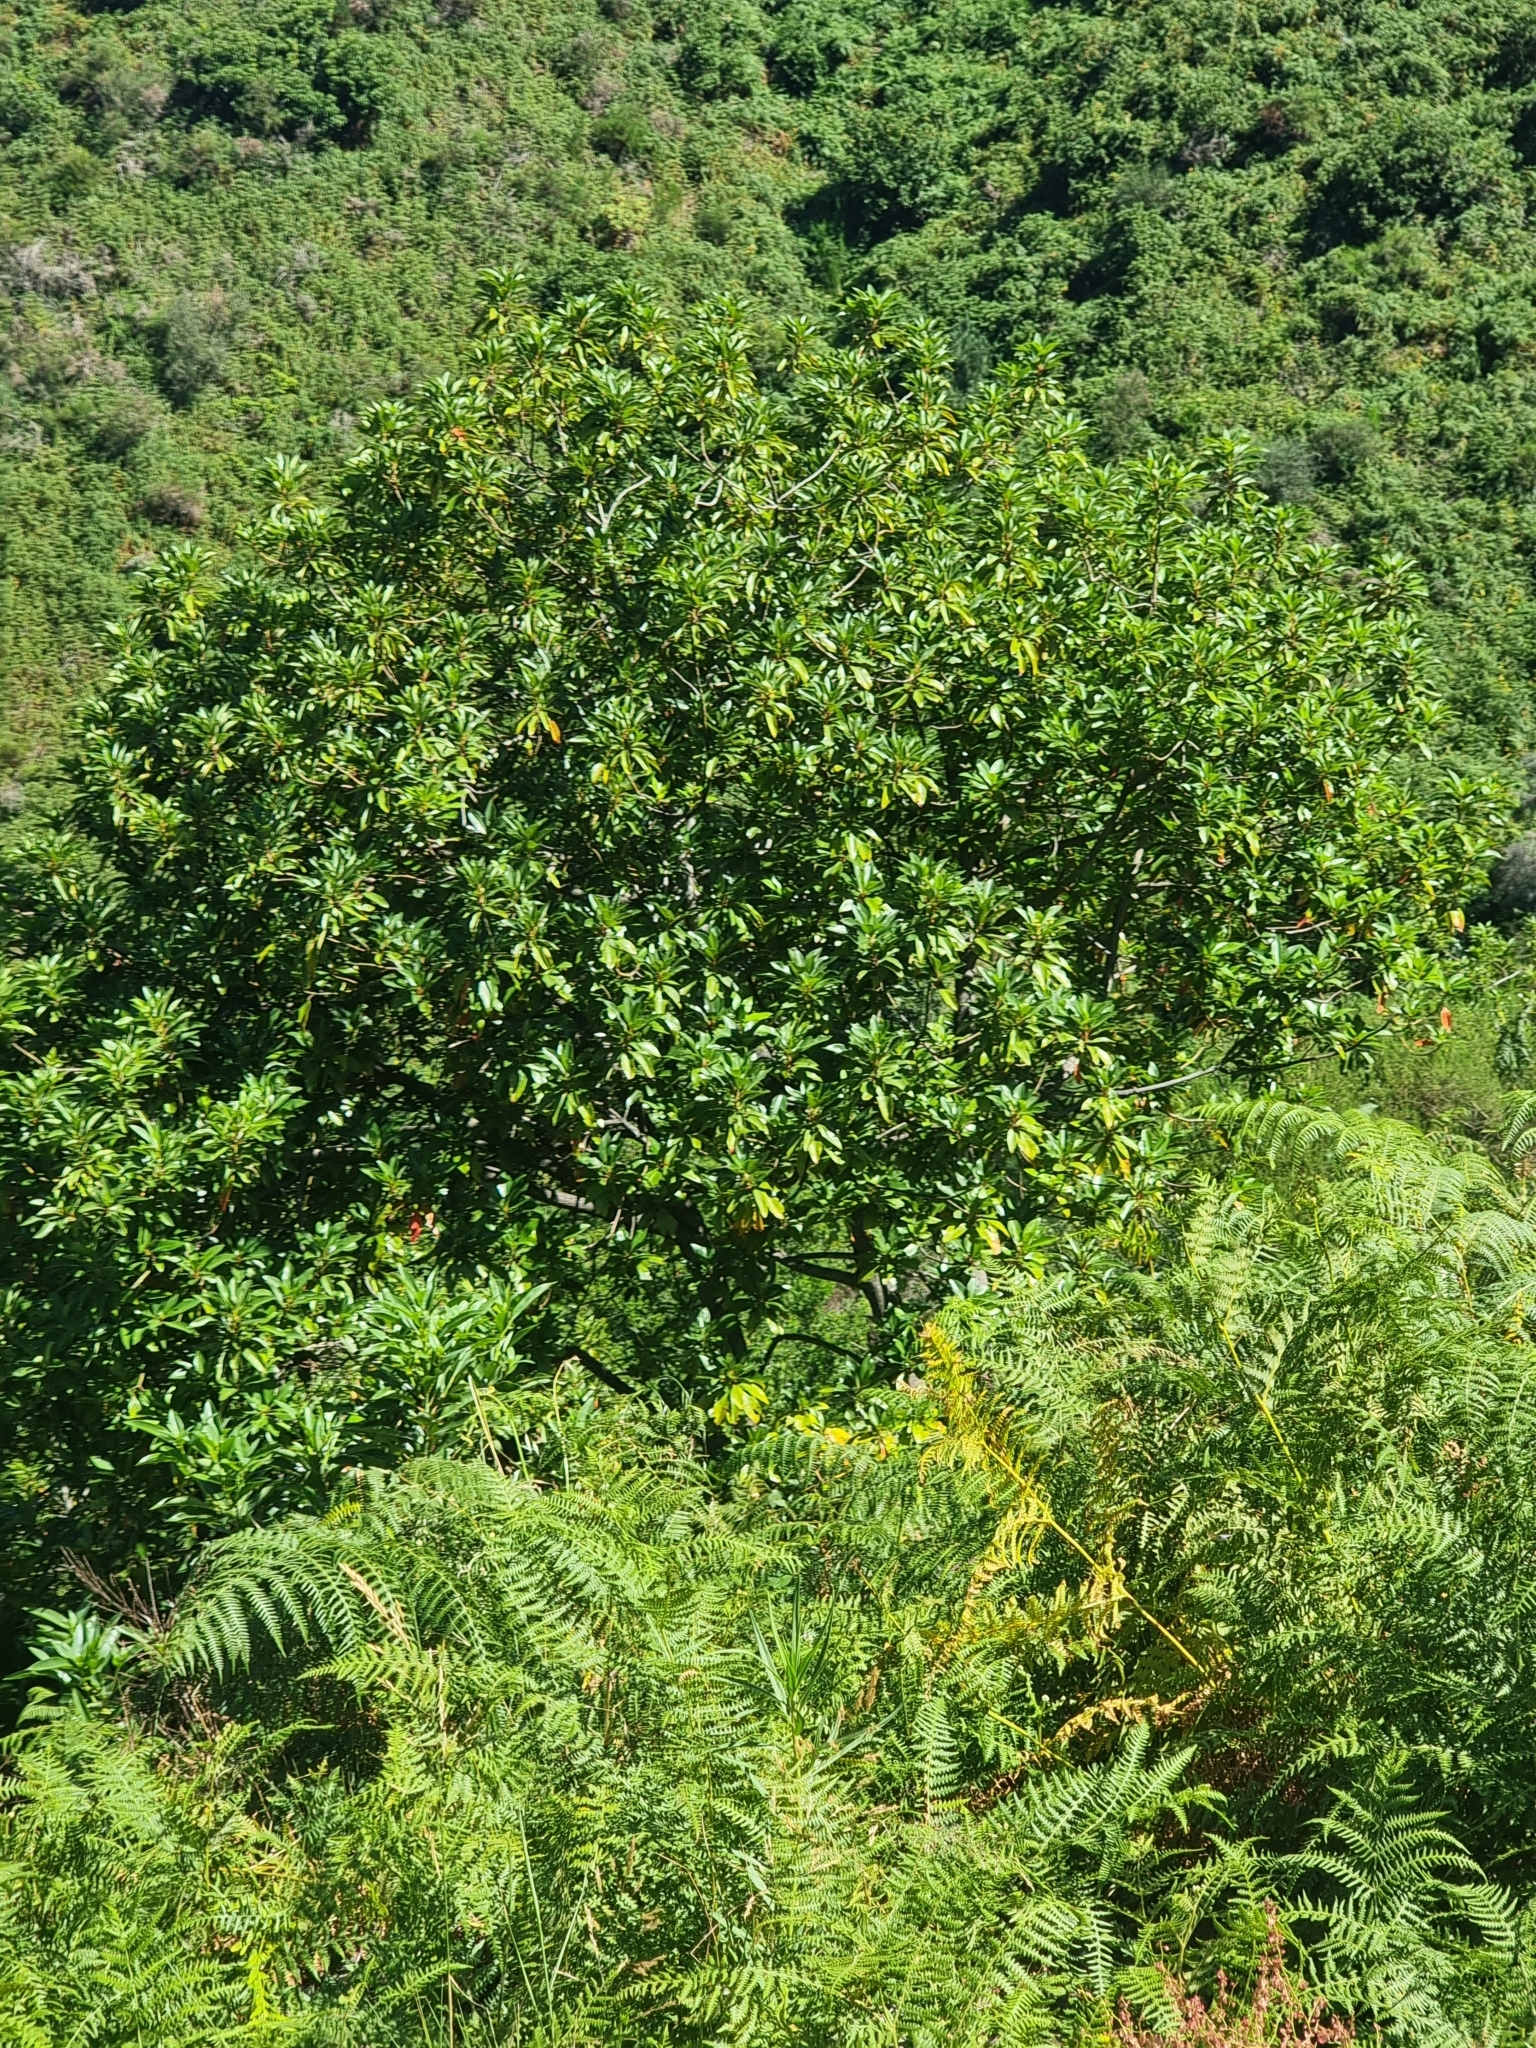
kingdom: Plantae
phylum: Tracheophyta
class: Magnoliopsida
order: Laurales
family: Lauraceae
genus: Persea
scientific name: Persea indica
